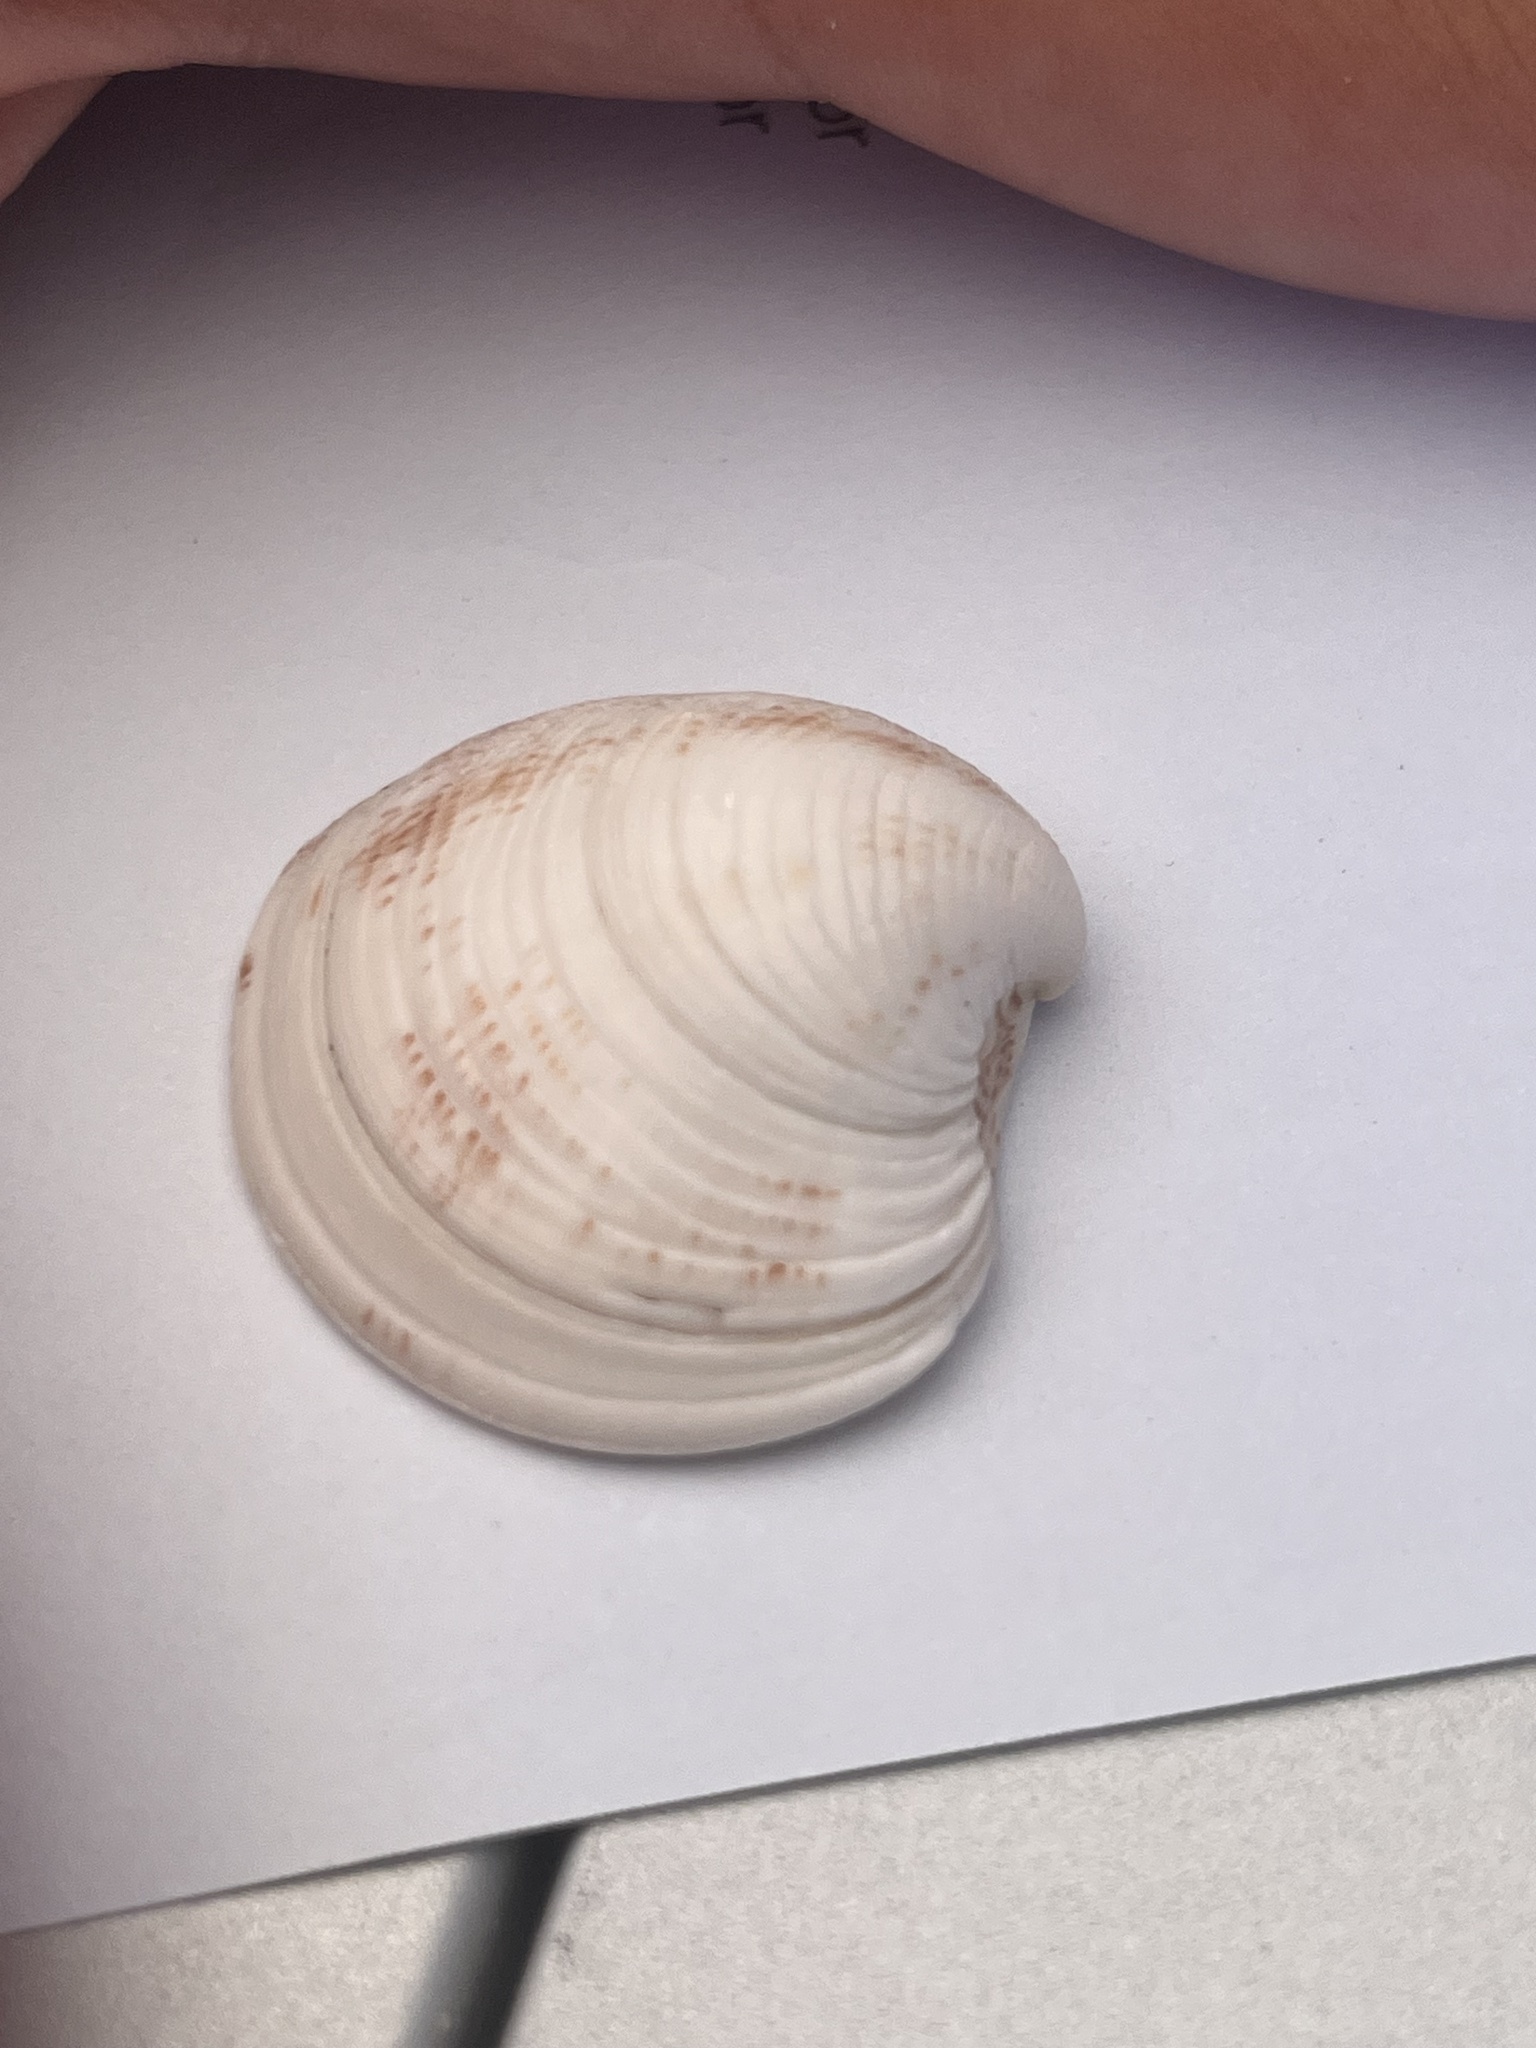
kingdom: Animalia
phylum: Mollusca
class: Bivalvia
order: Venerida
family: Veneridae
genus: Chamelea
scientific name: Chamelea gallina
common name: Chicken venus
